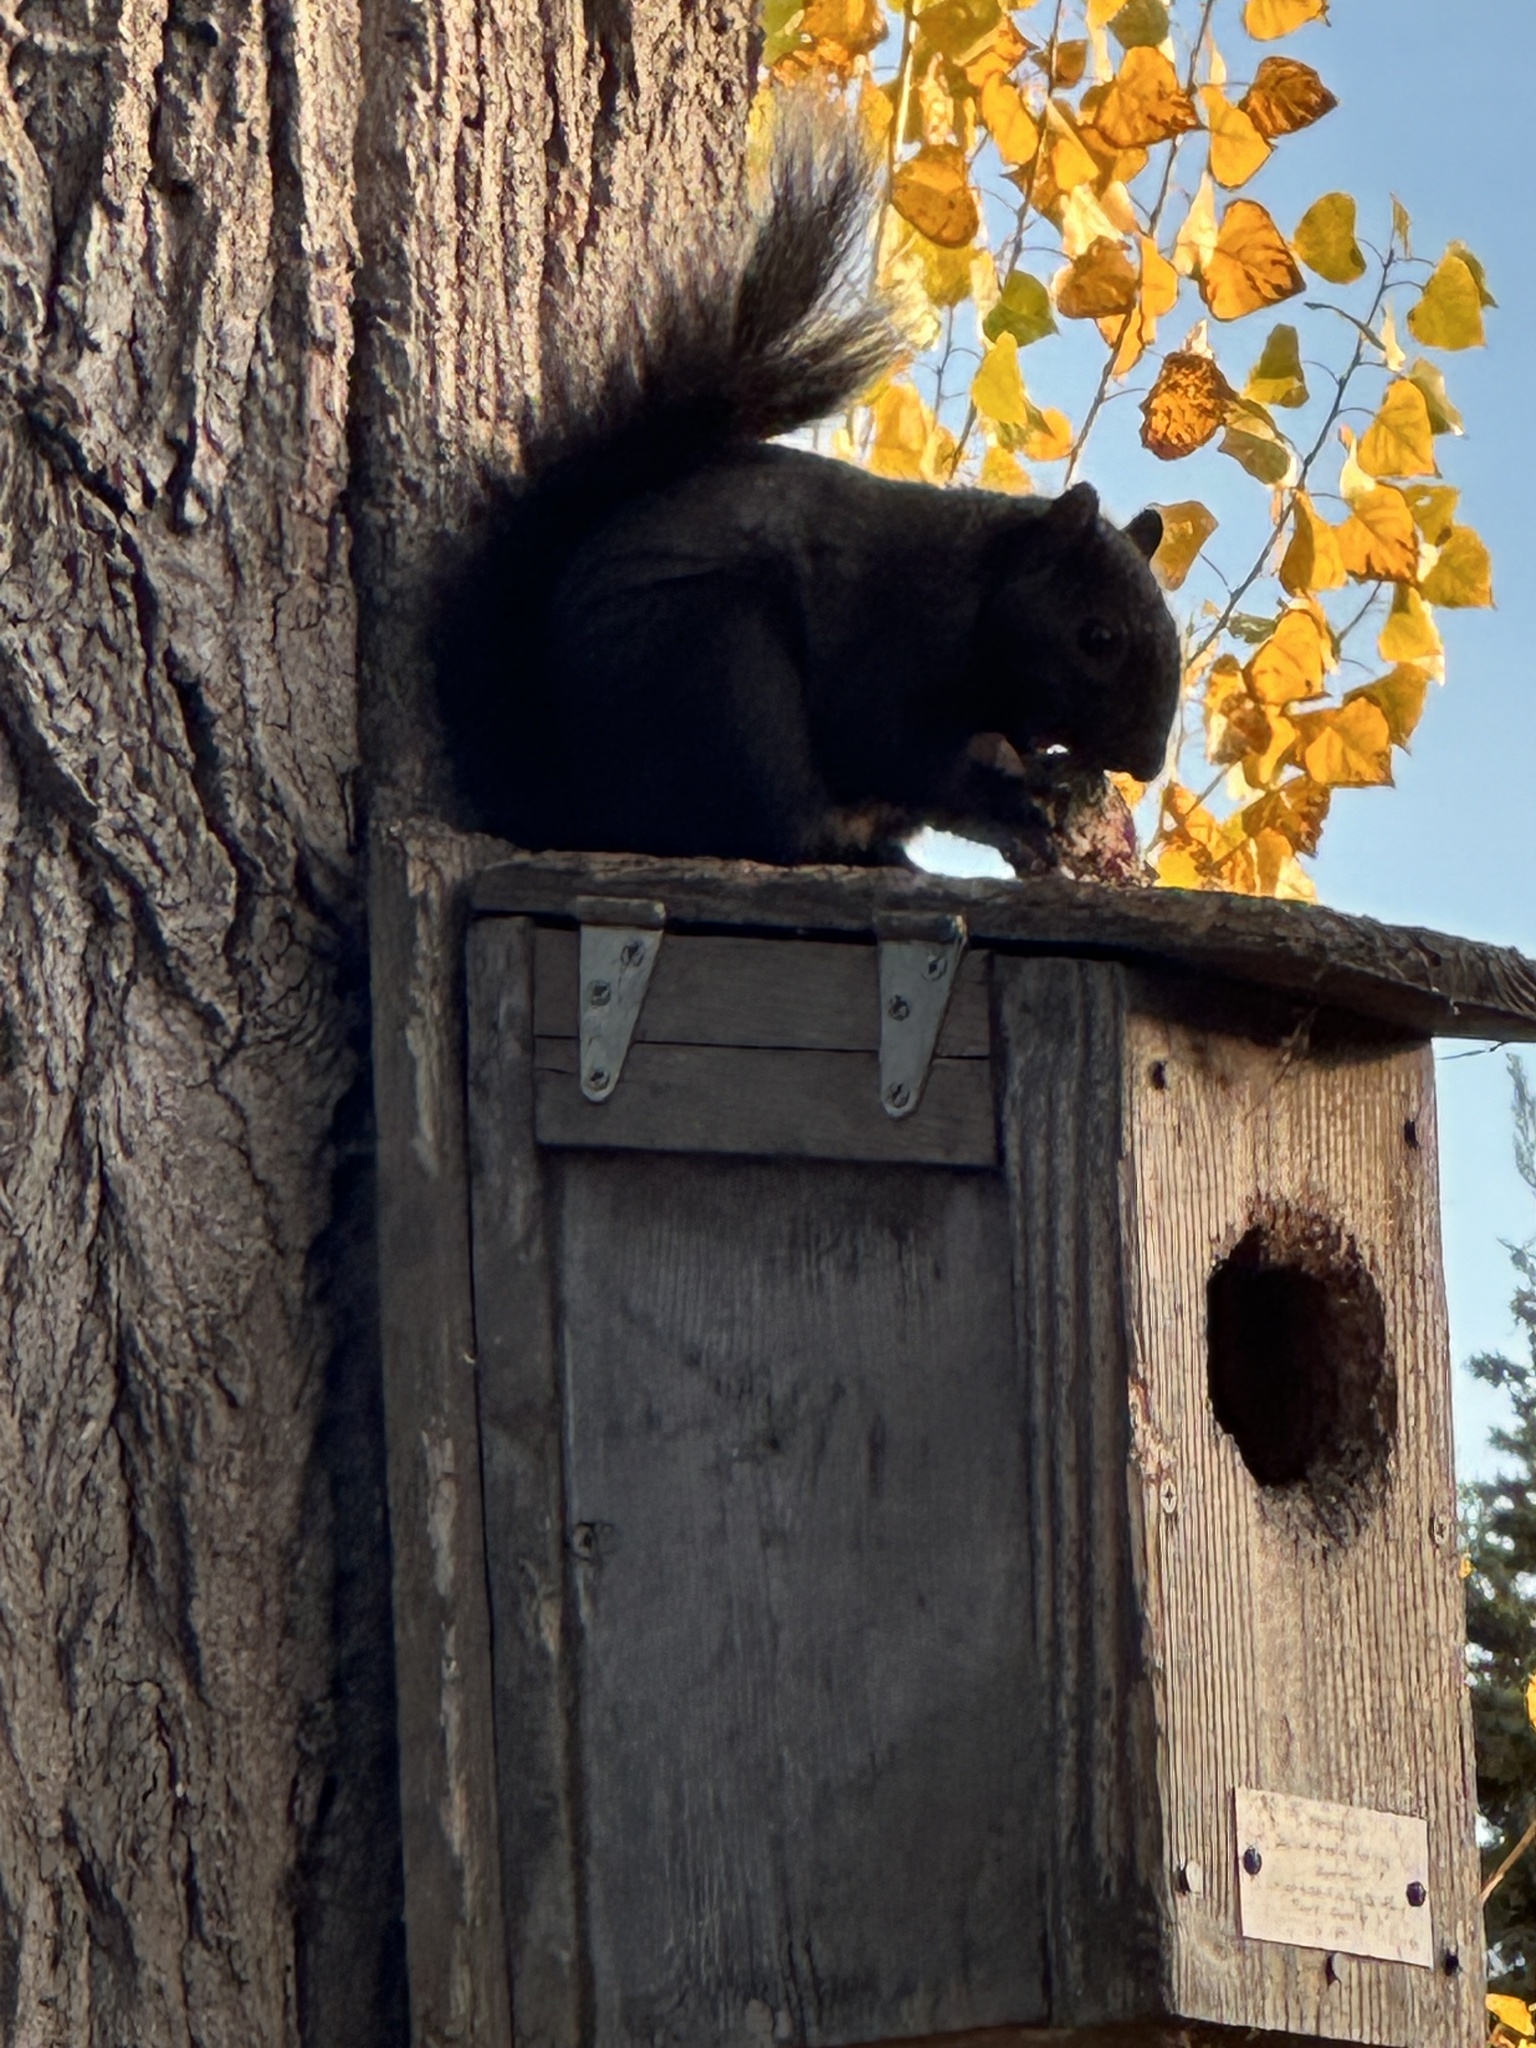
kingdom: Animalia
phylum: Chordata
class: Mammalia
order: Rodentia
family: Sciuridae
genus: Sciurus
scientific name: Sciurus carolinensis
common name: Eastern gray squirrel
